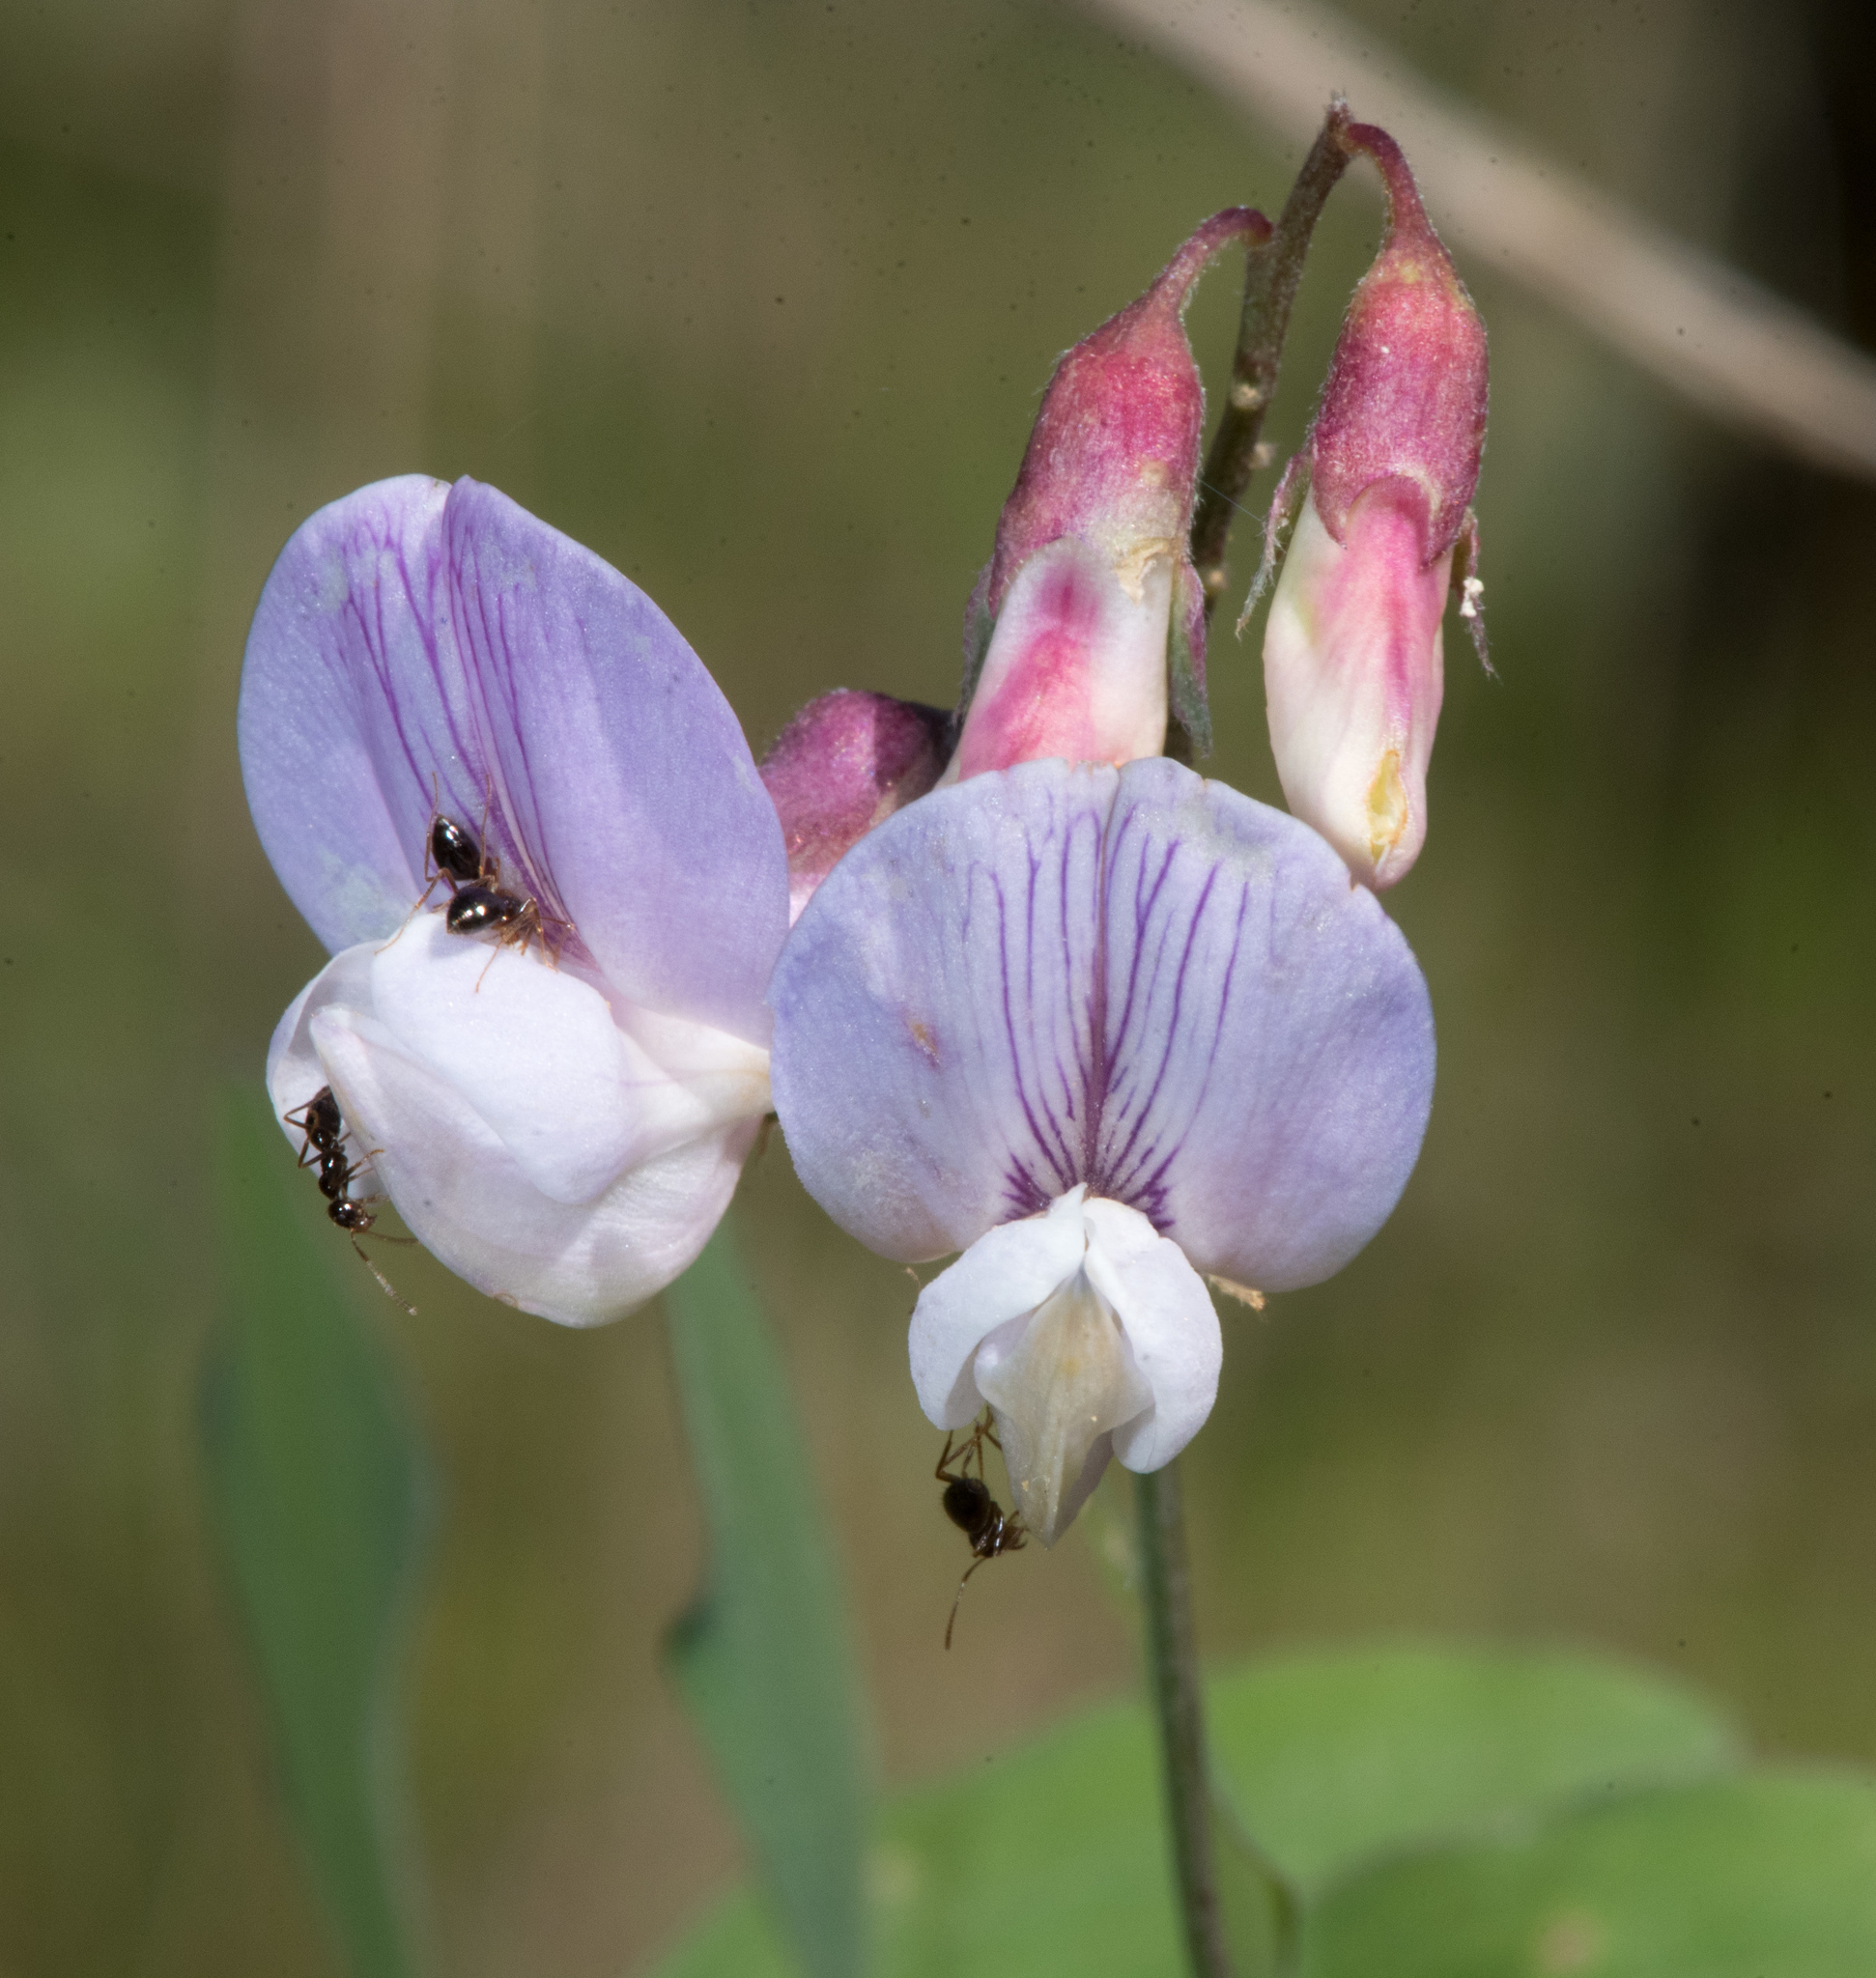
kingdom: Plantae
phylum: Tracheophyta
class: Magnoliopsida
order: Fabales
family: Fabaceae
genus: Lathyrus
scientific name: Lathyrus vestitus
